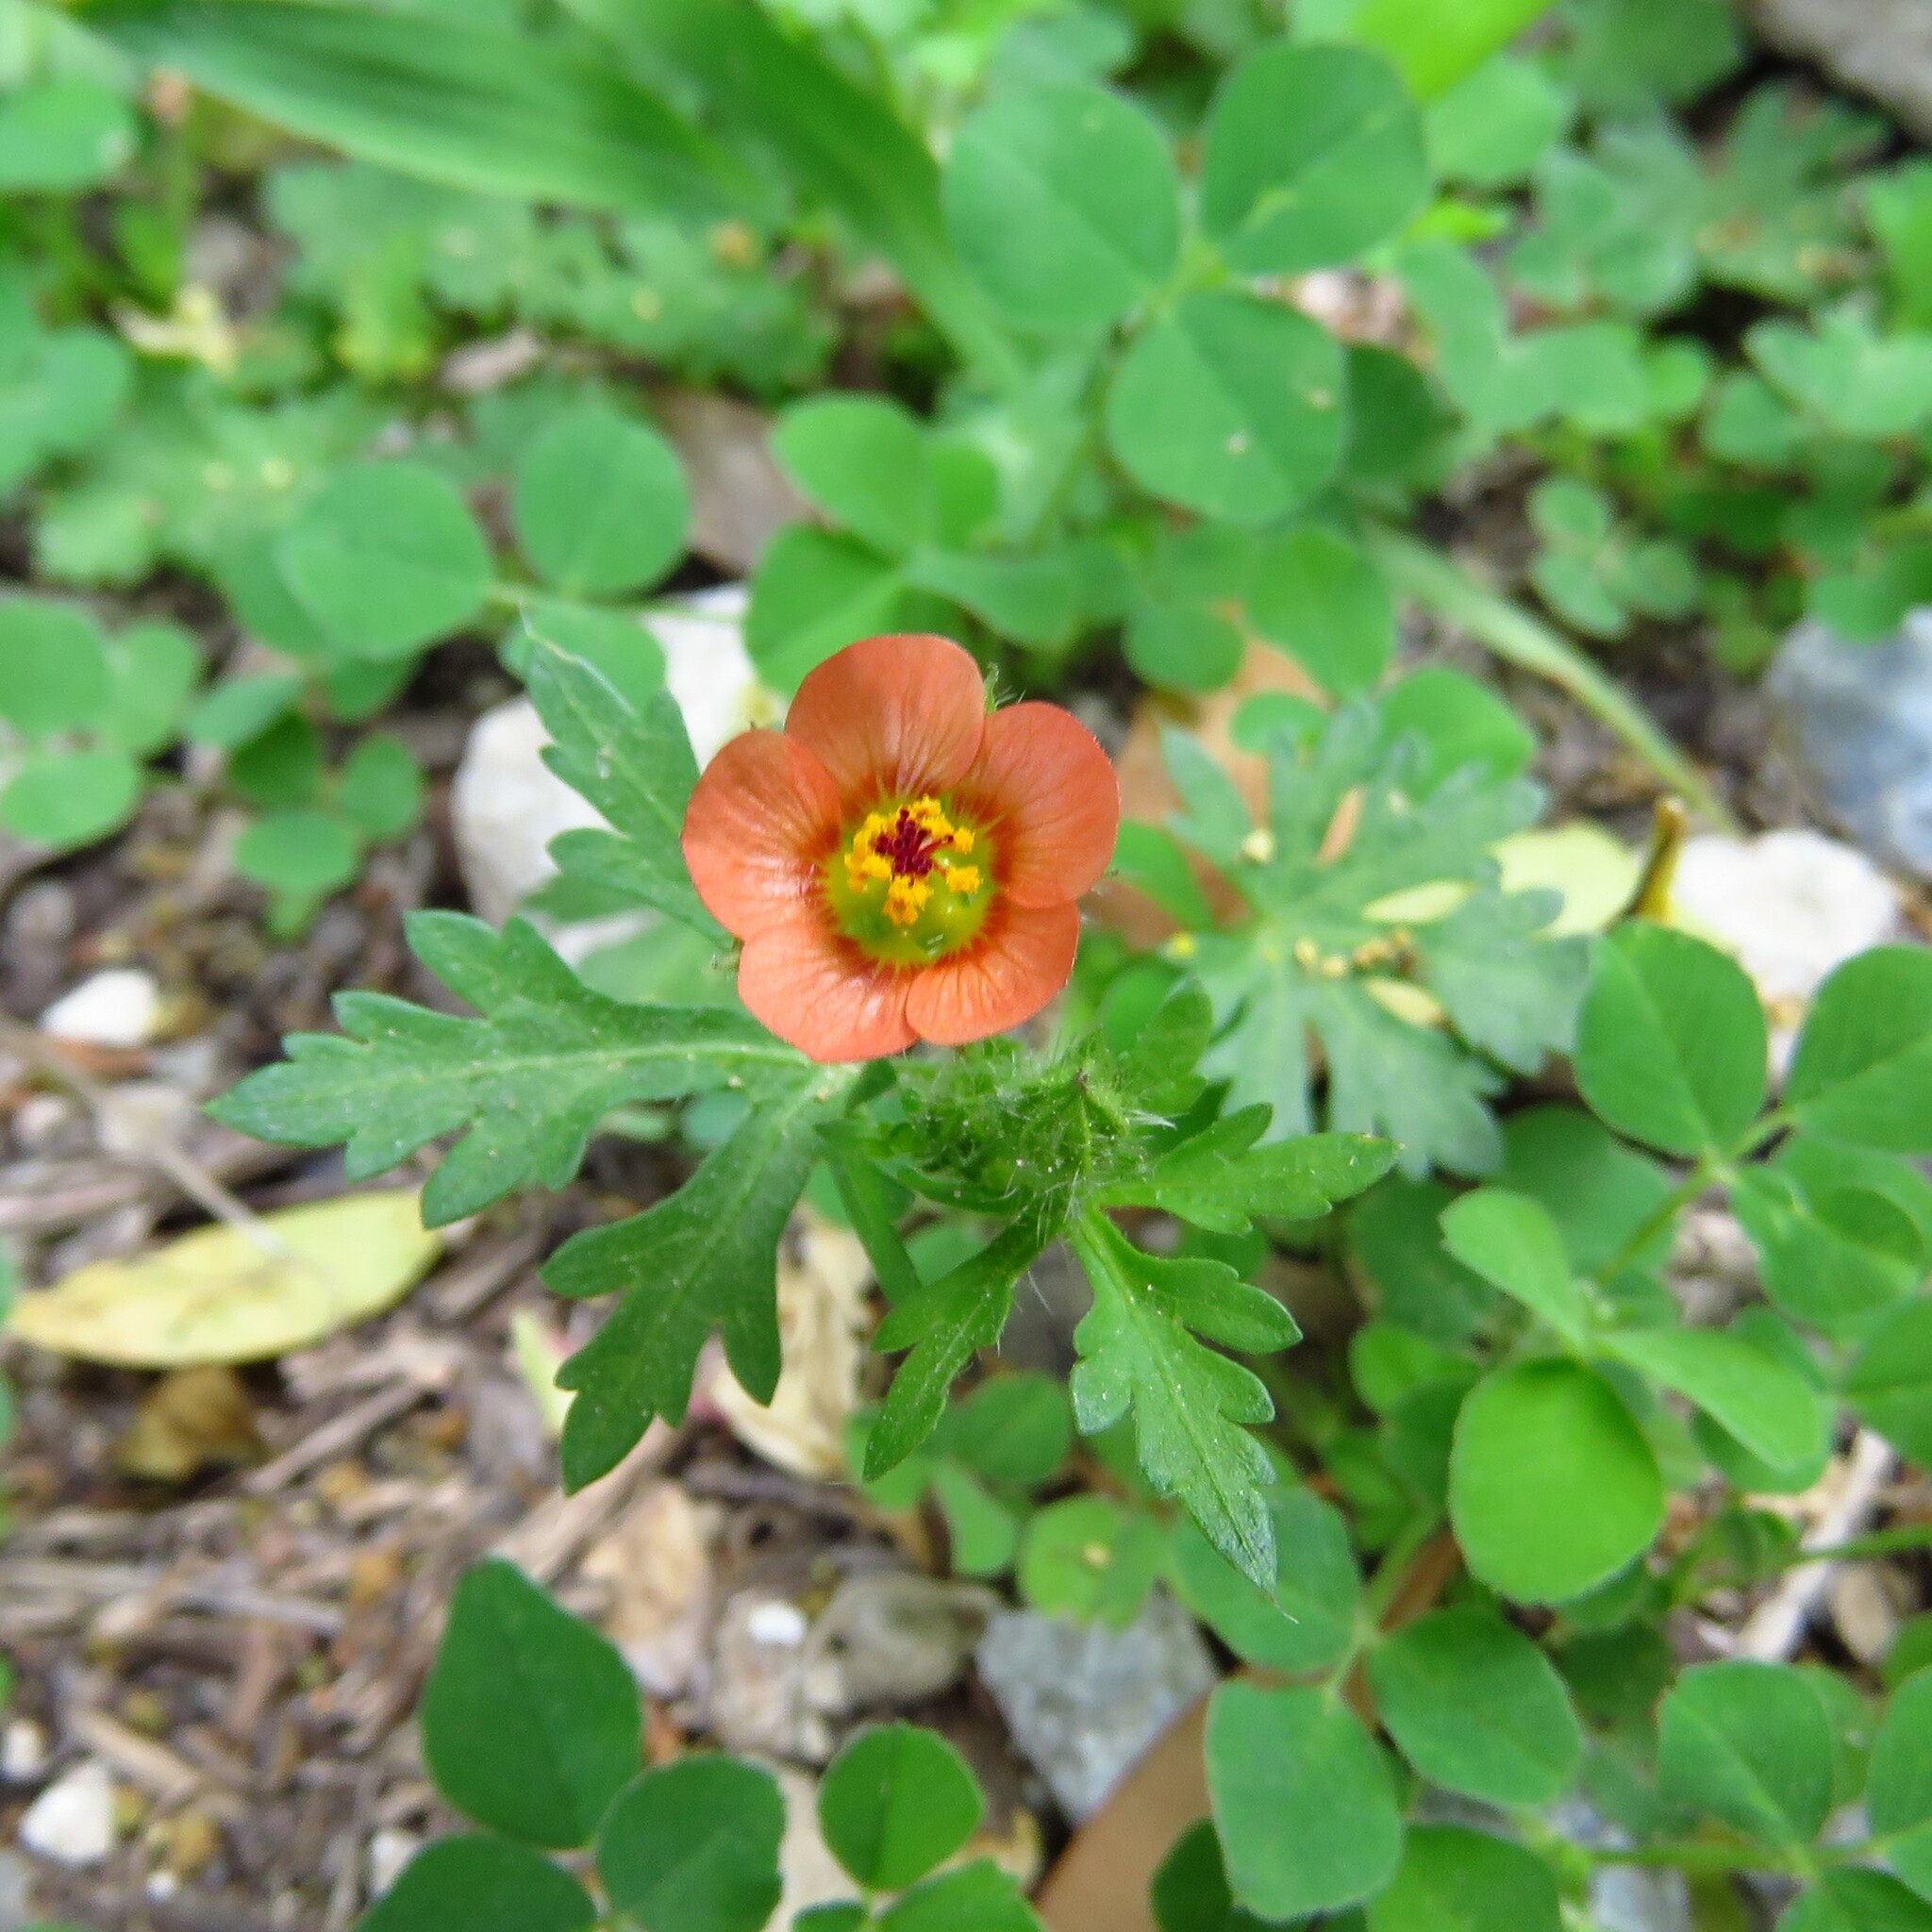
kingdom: Plantae
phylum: Tracheophyta
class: Magnoliopsida
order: Malvales
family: Malvaceae
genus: Modiola
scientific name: Modiola caroliniana
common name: Carolina bristlemallow
